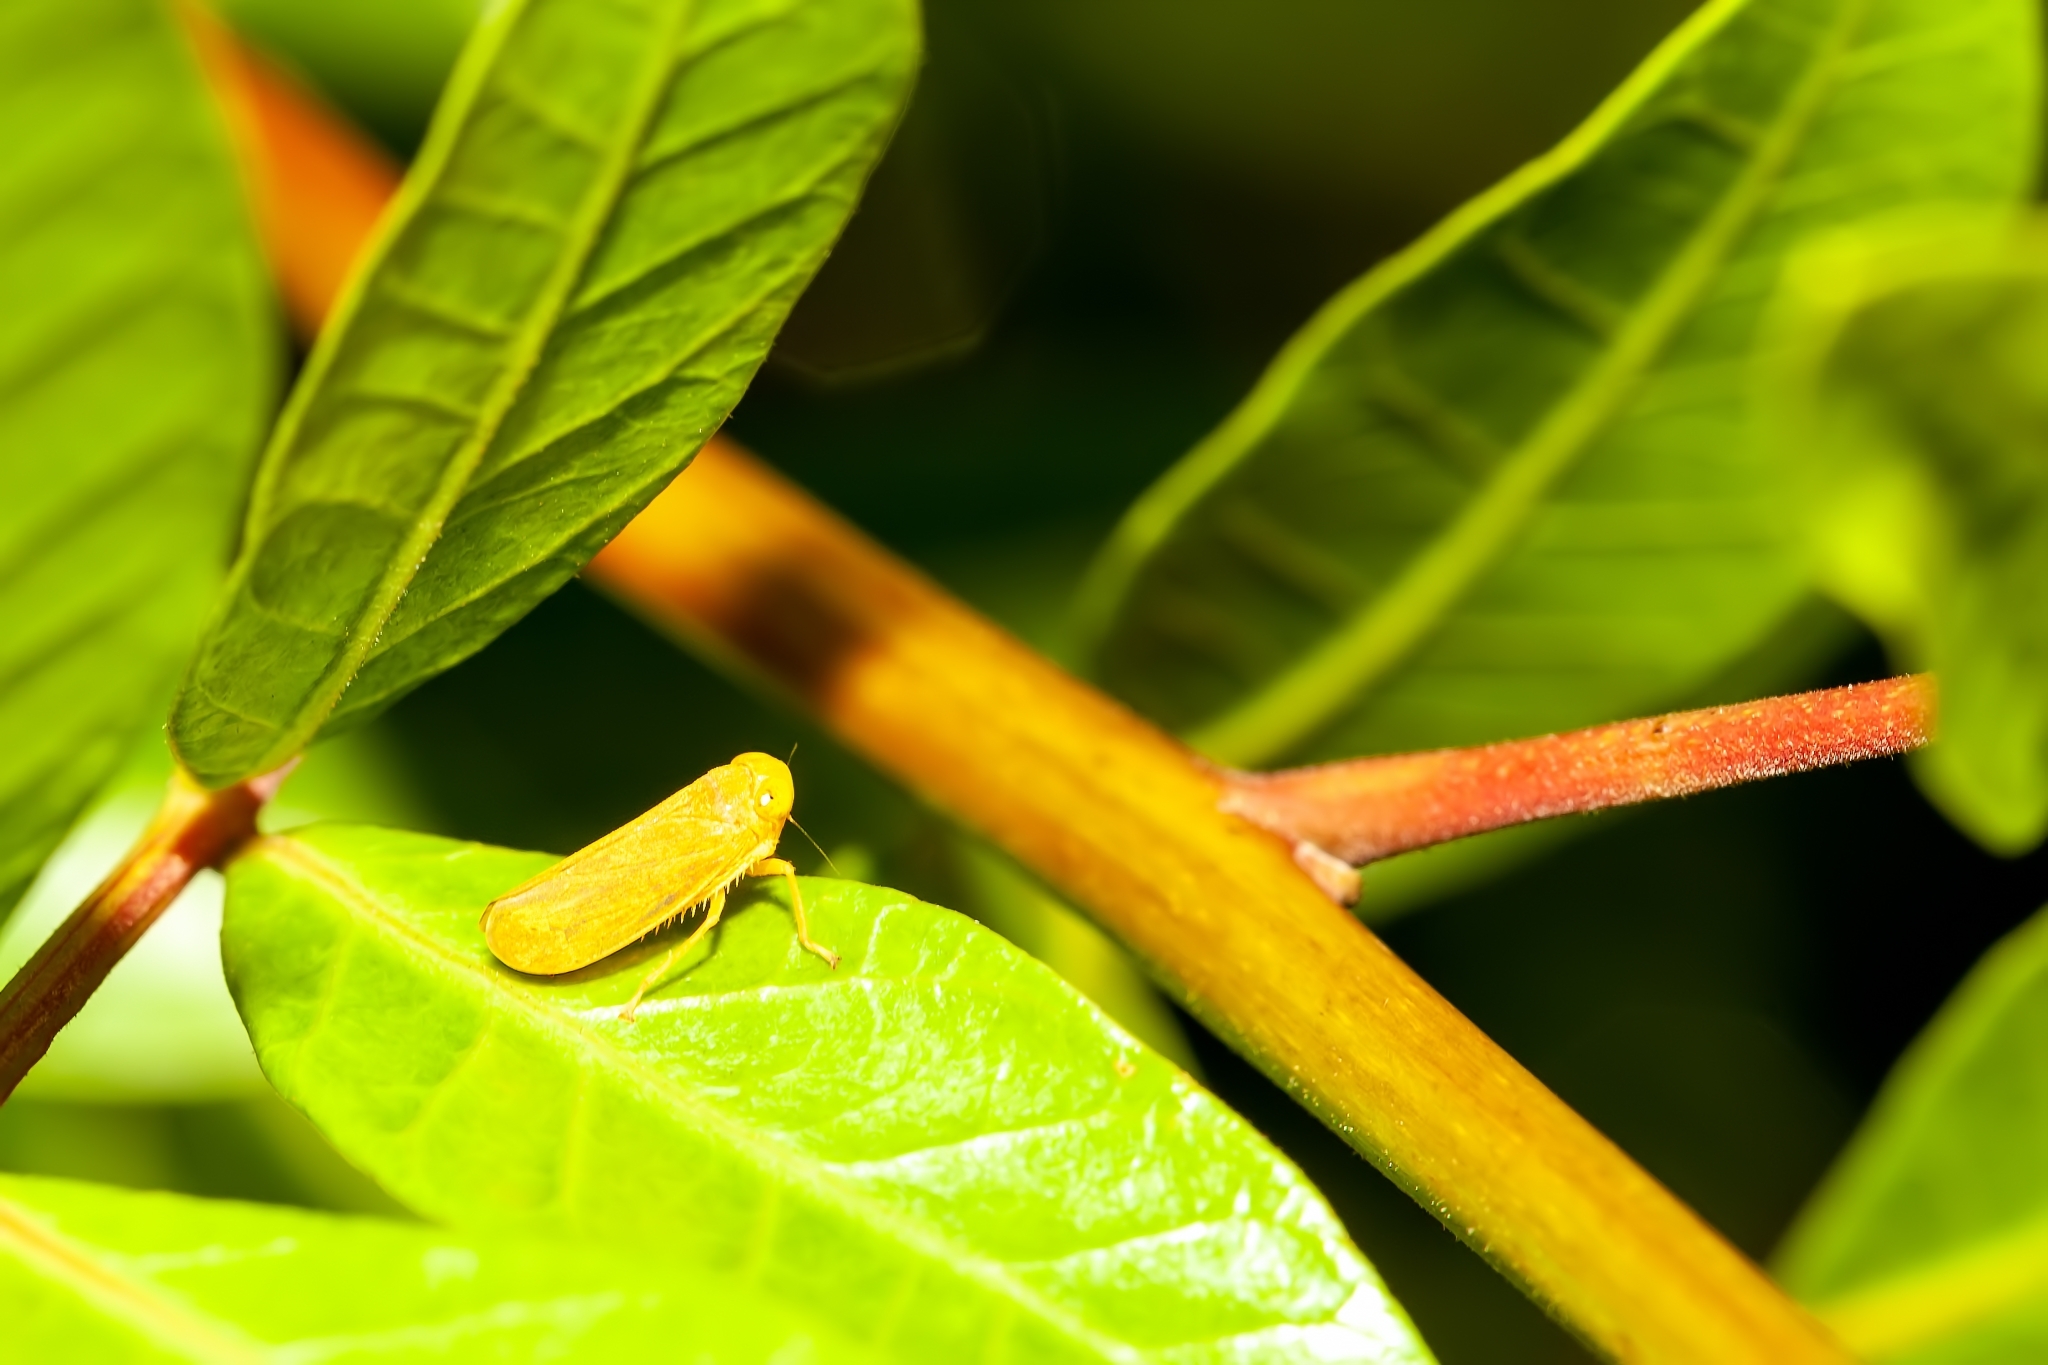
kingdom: Animalia
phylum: Arthropoda
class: Insecta
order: Hemiptera
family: Cicadellidae
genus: Jikradia
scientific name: Jikradia olitoria
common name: Coppery leafhopper
